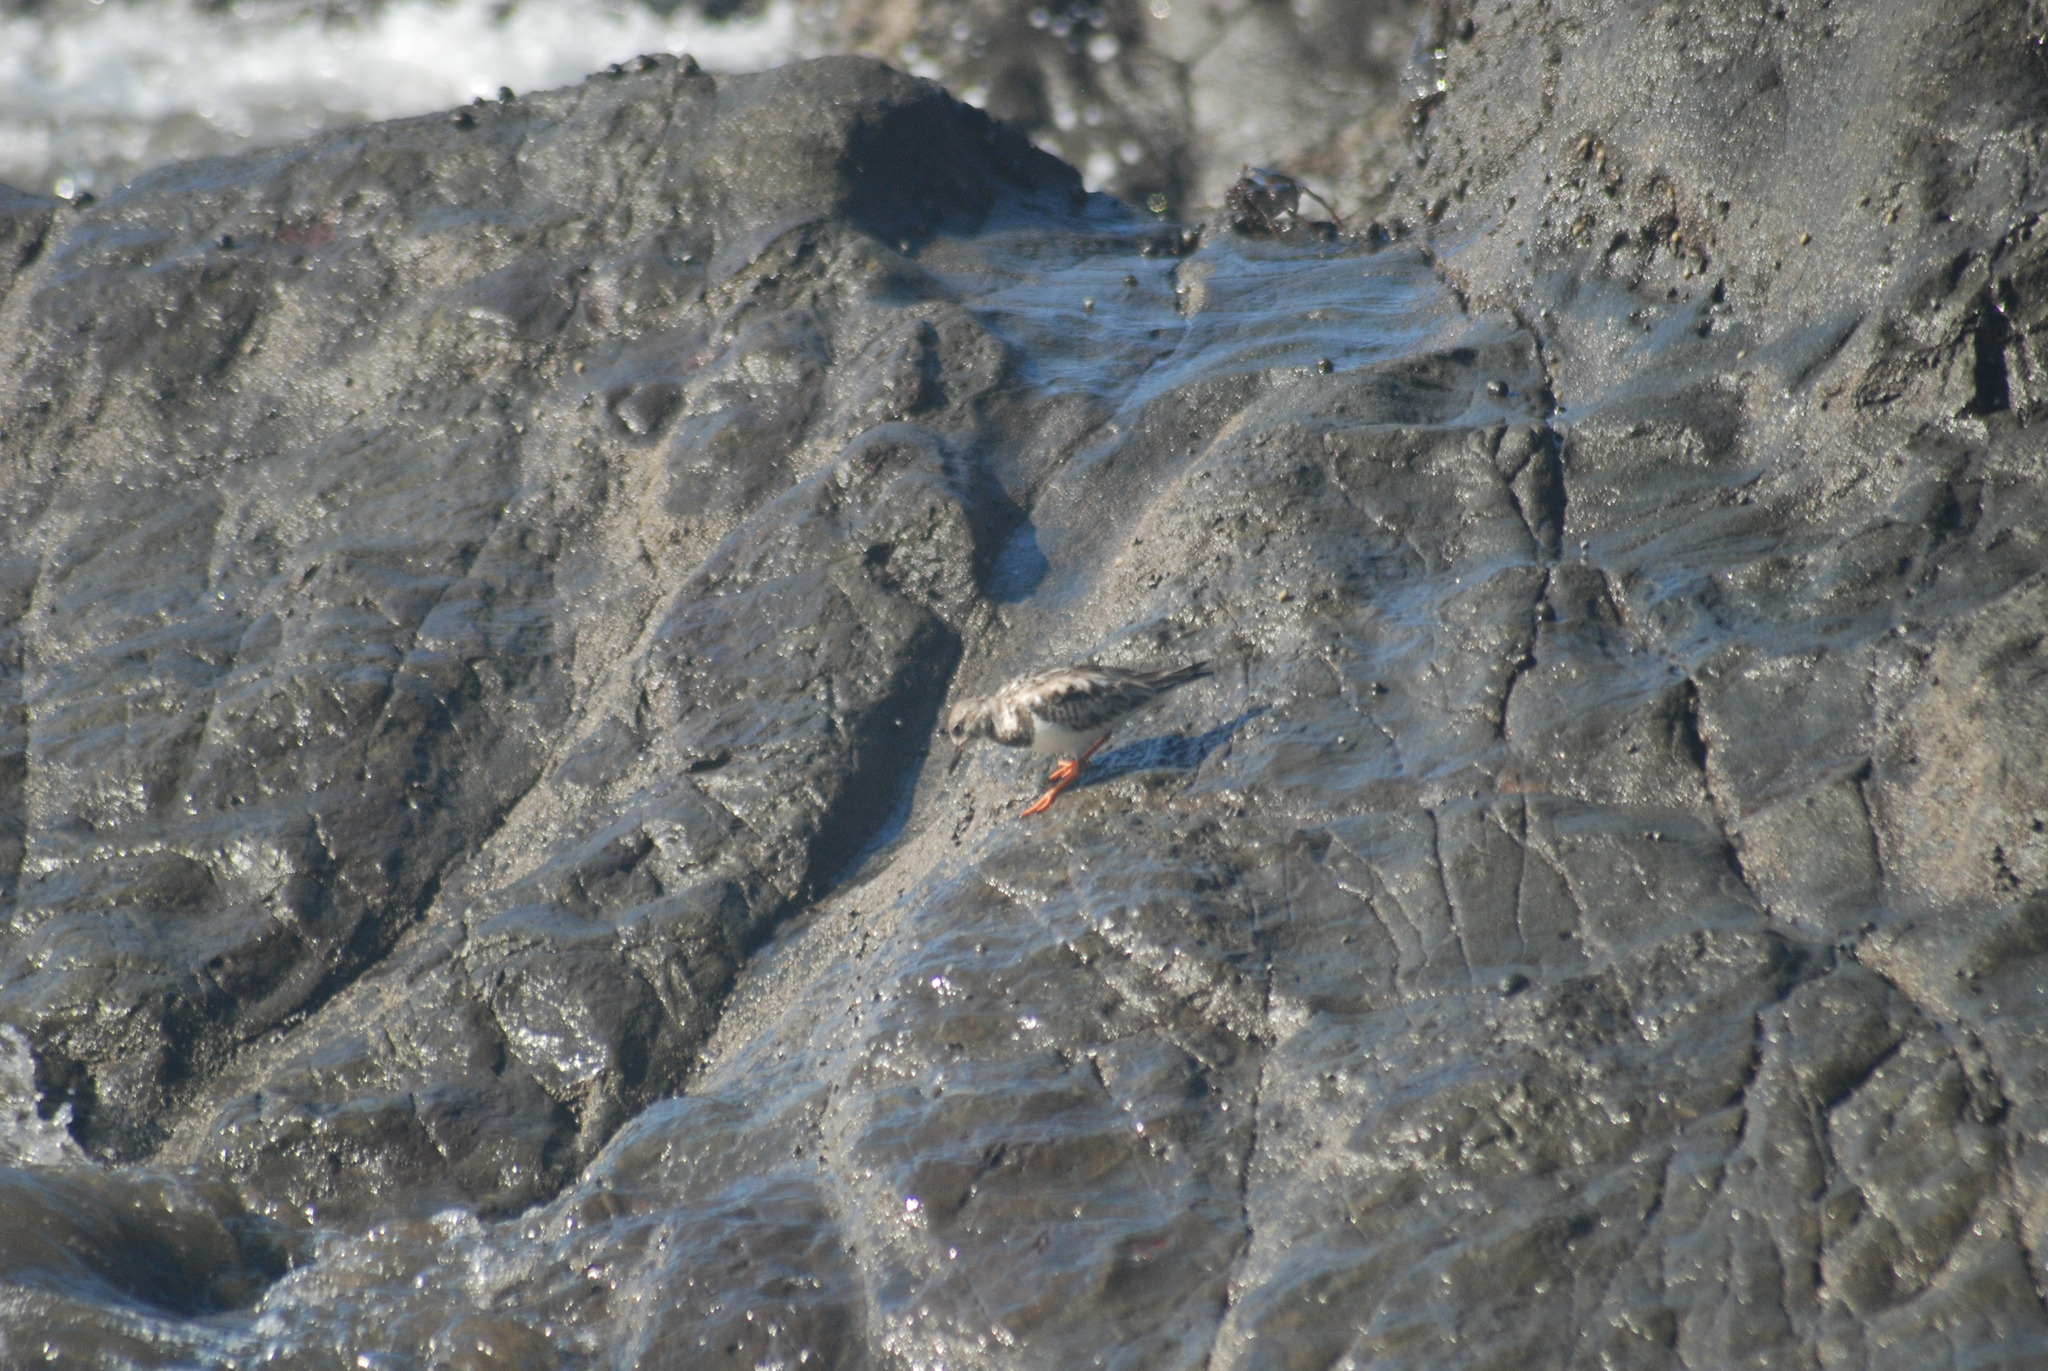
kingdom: Animalia
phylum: Chordata
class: Aves
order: Charadriiformes
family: Scolopacidae
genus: Arenaria
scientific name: Arenaria interpres
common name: Ruddy turnstone
